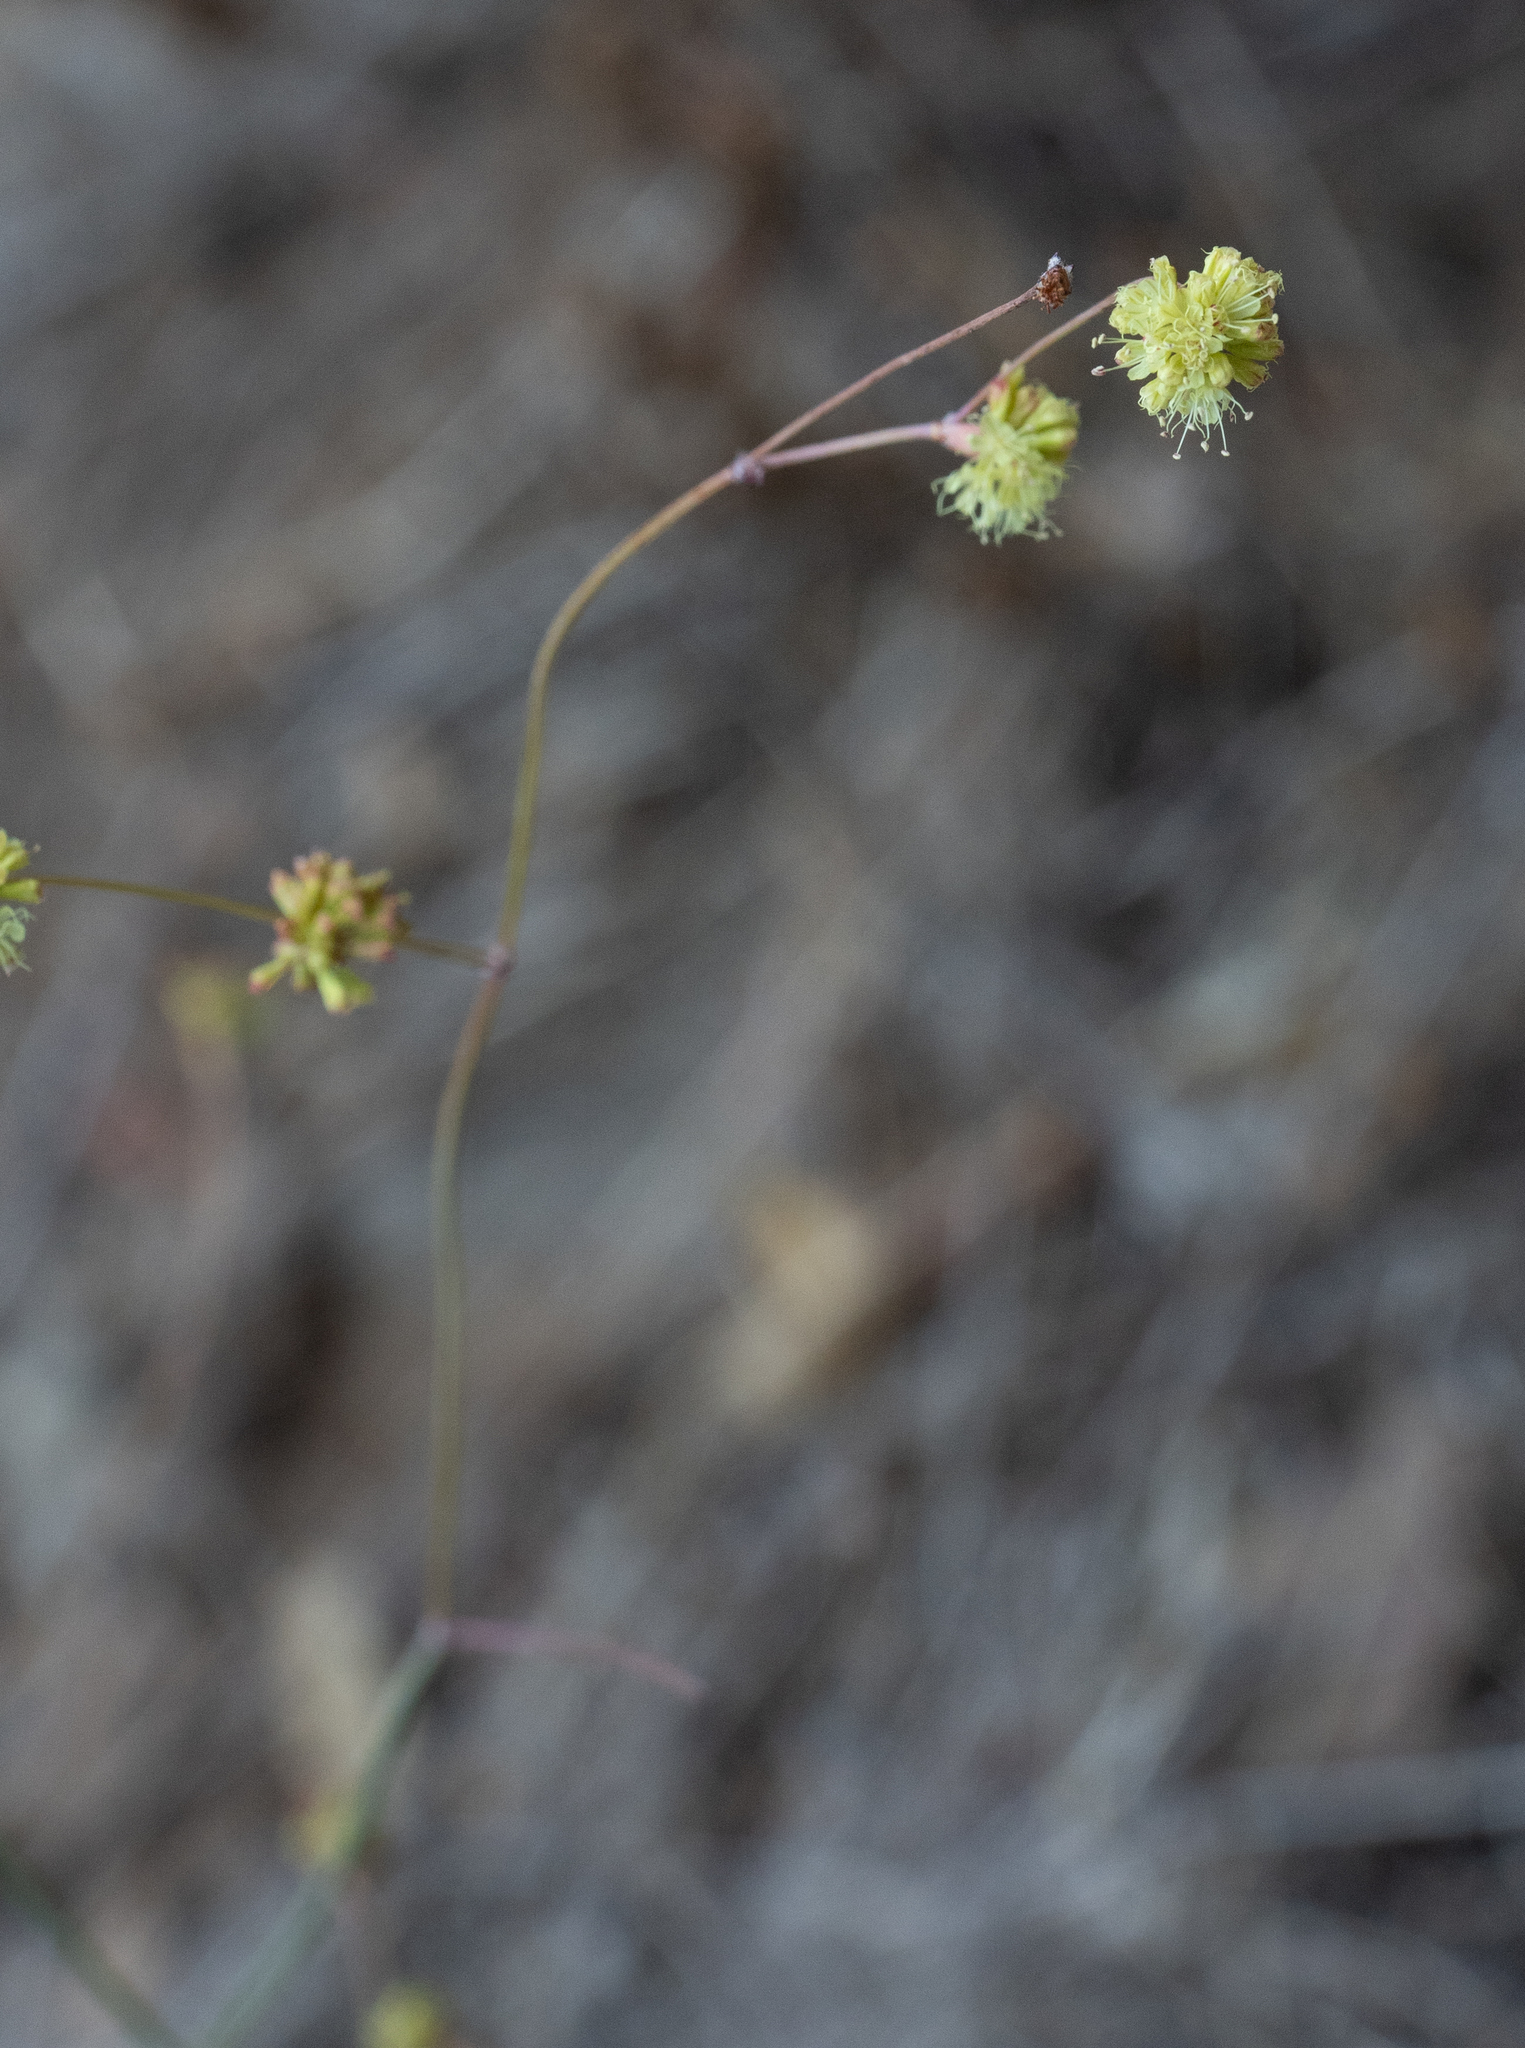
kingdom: Plantae
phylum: Tracheophyta
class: Magnoliopsida
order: Caryophyllales
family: Polygonaceae
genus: Eriogonum
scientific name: Eriogonum nudum
